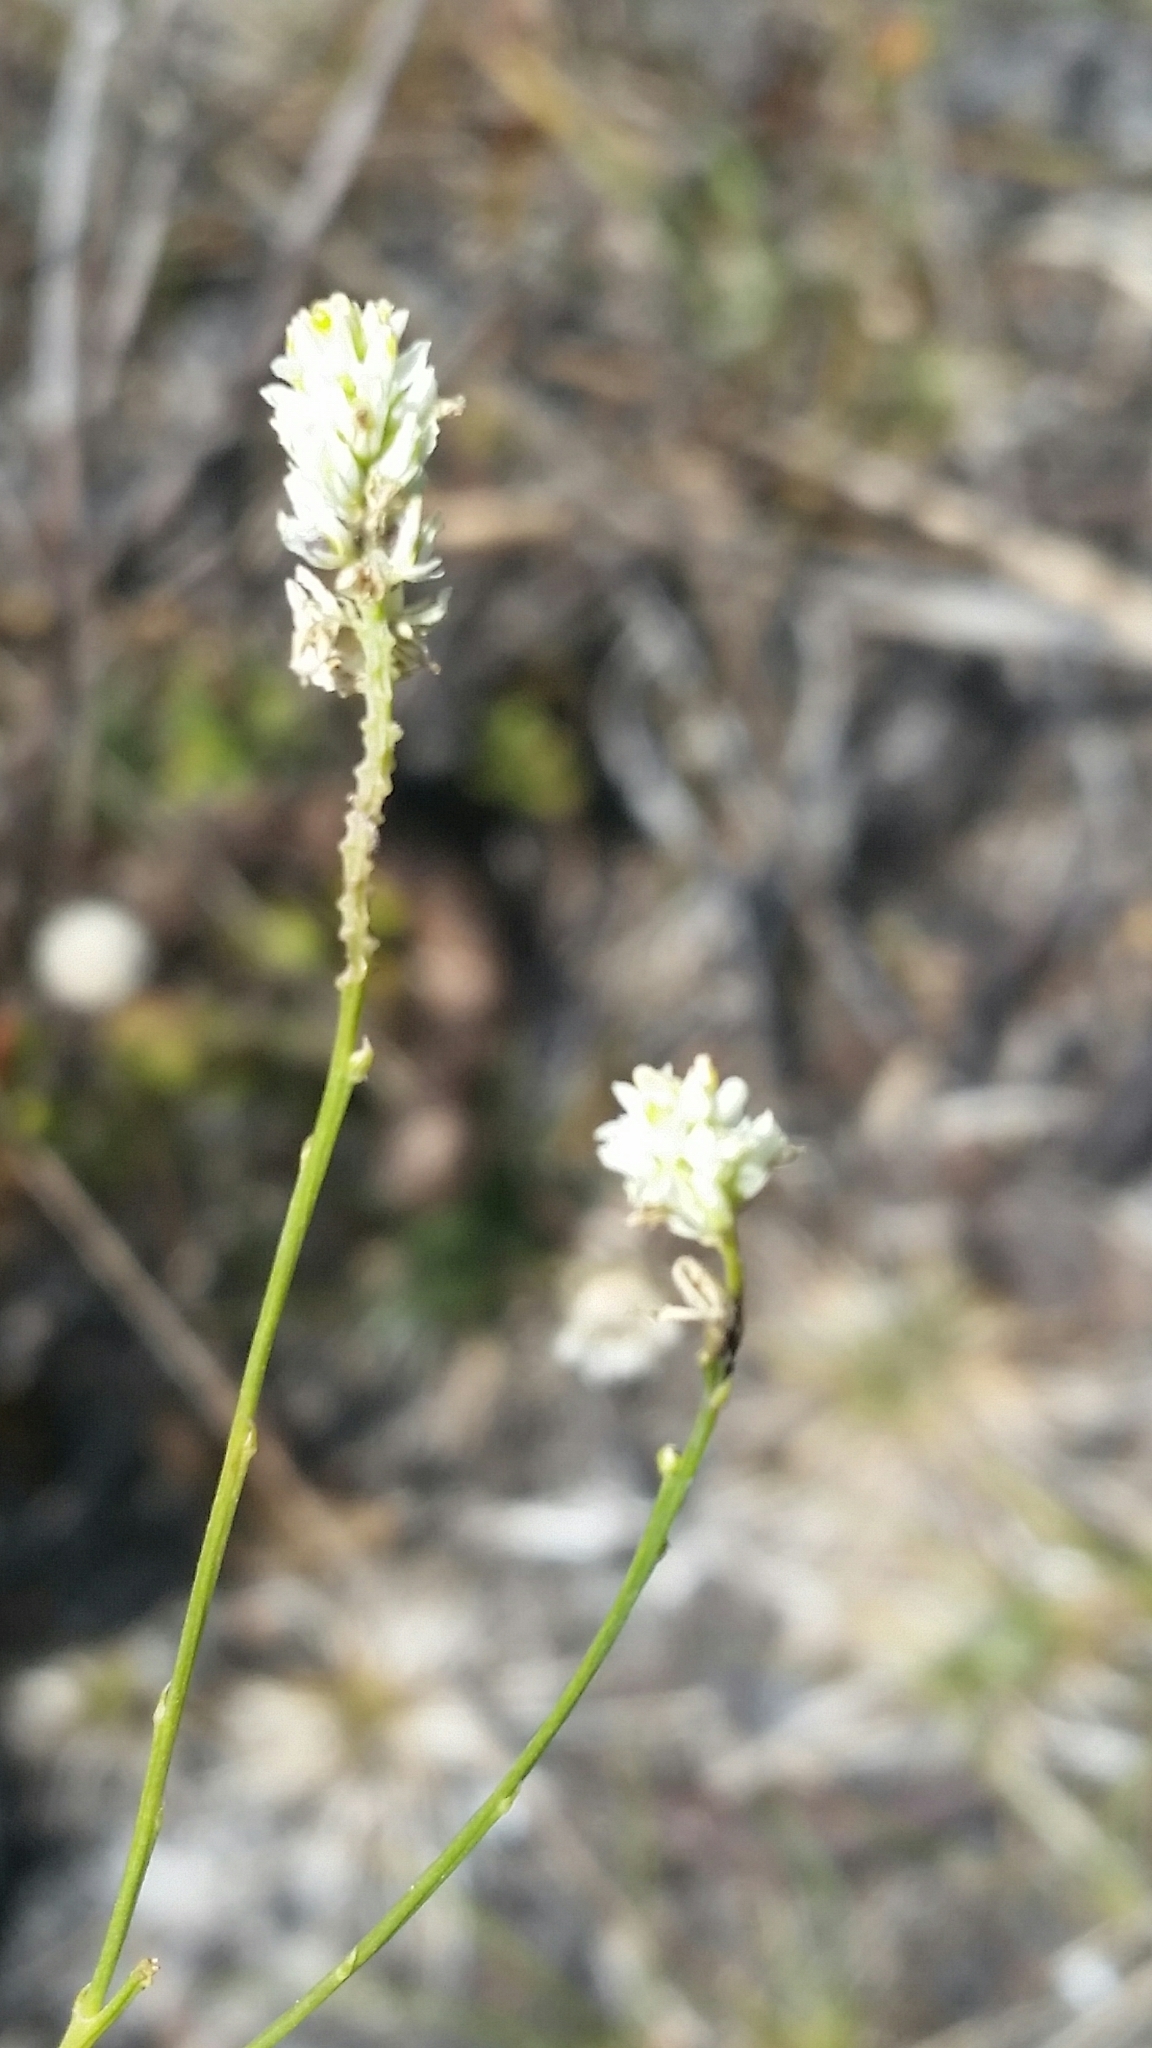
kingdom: Plantae
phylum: Tracheophyta
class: Magnoliopsida
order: Fabales
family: Polygalaceae
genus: Polygala
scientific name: Polygala setacea
